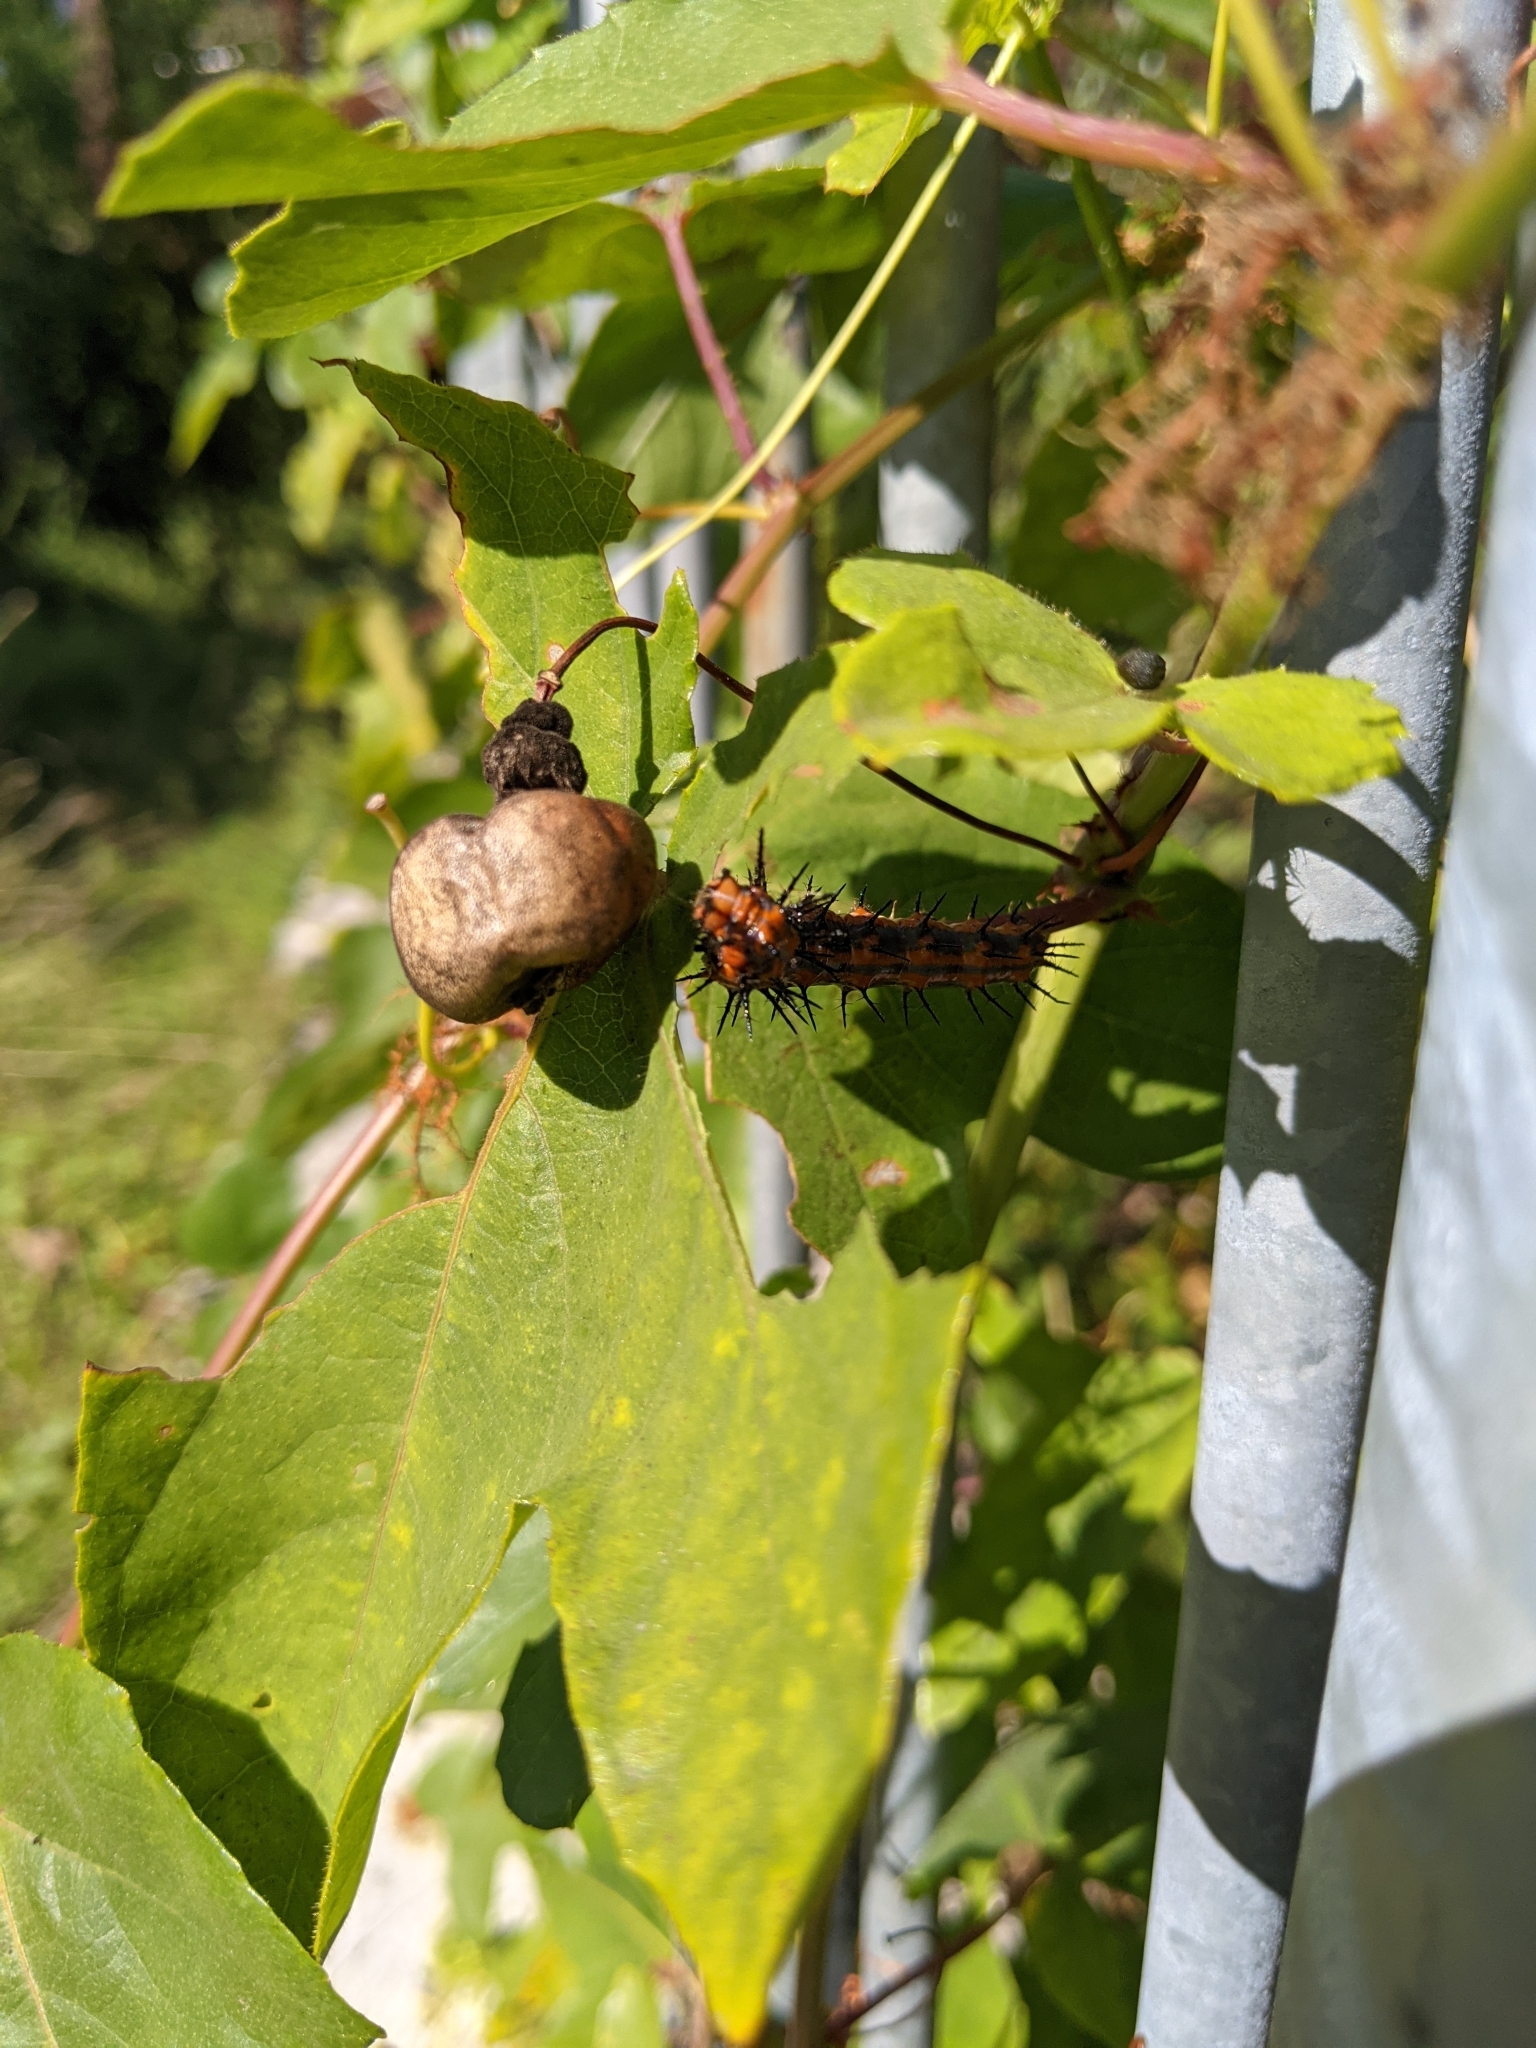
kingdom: Animalia
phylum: Arthropoda
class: Insecta
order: Lepidoptera
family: Nymphalidae
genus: Dione
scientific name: Dione vanillae
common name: Gulf fritillary
